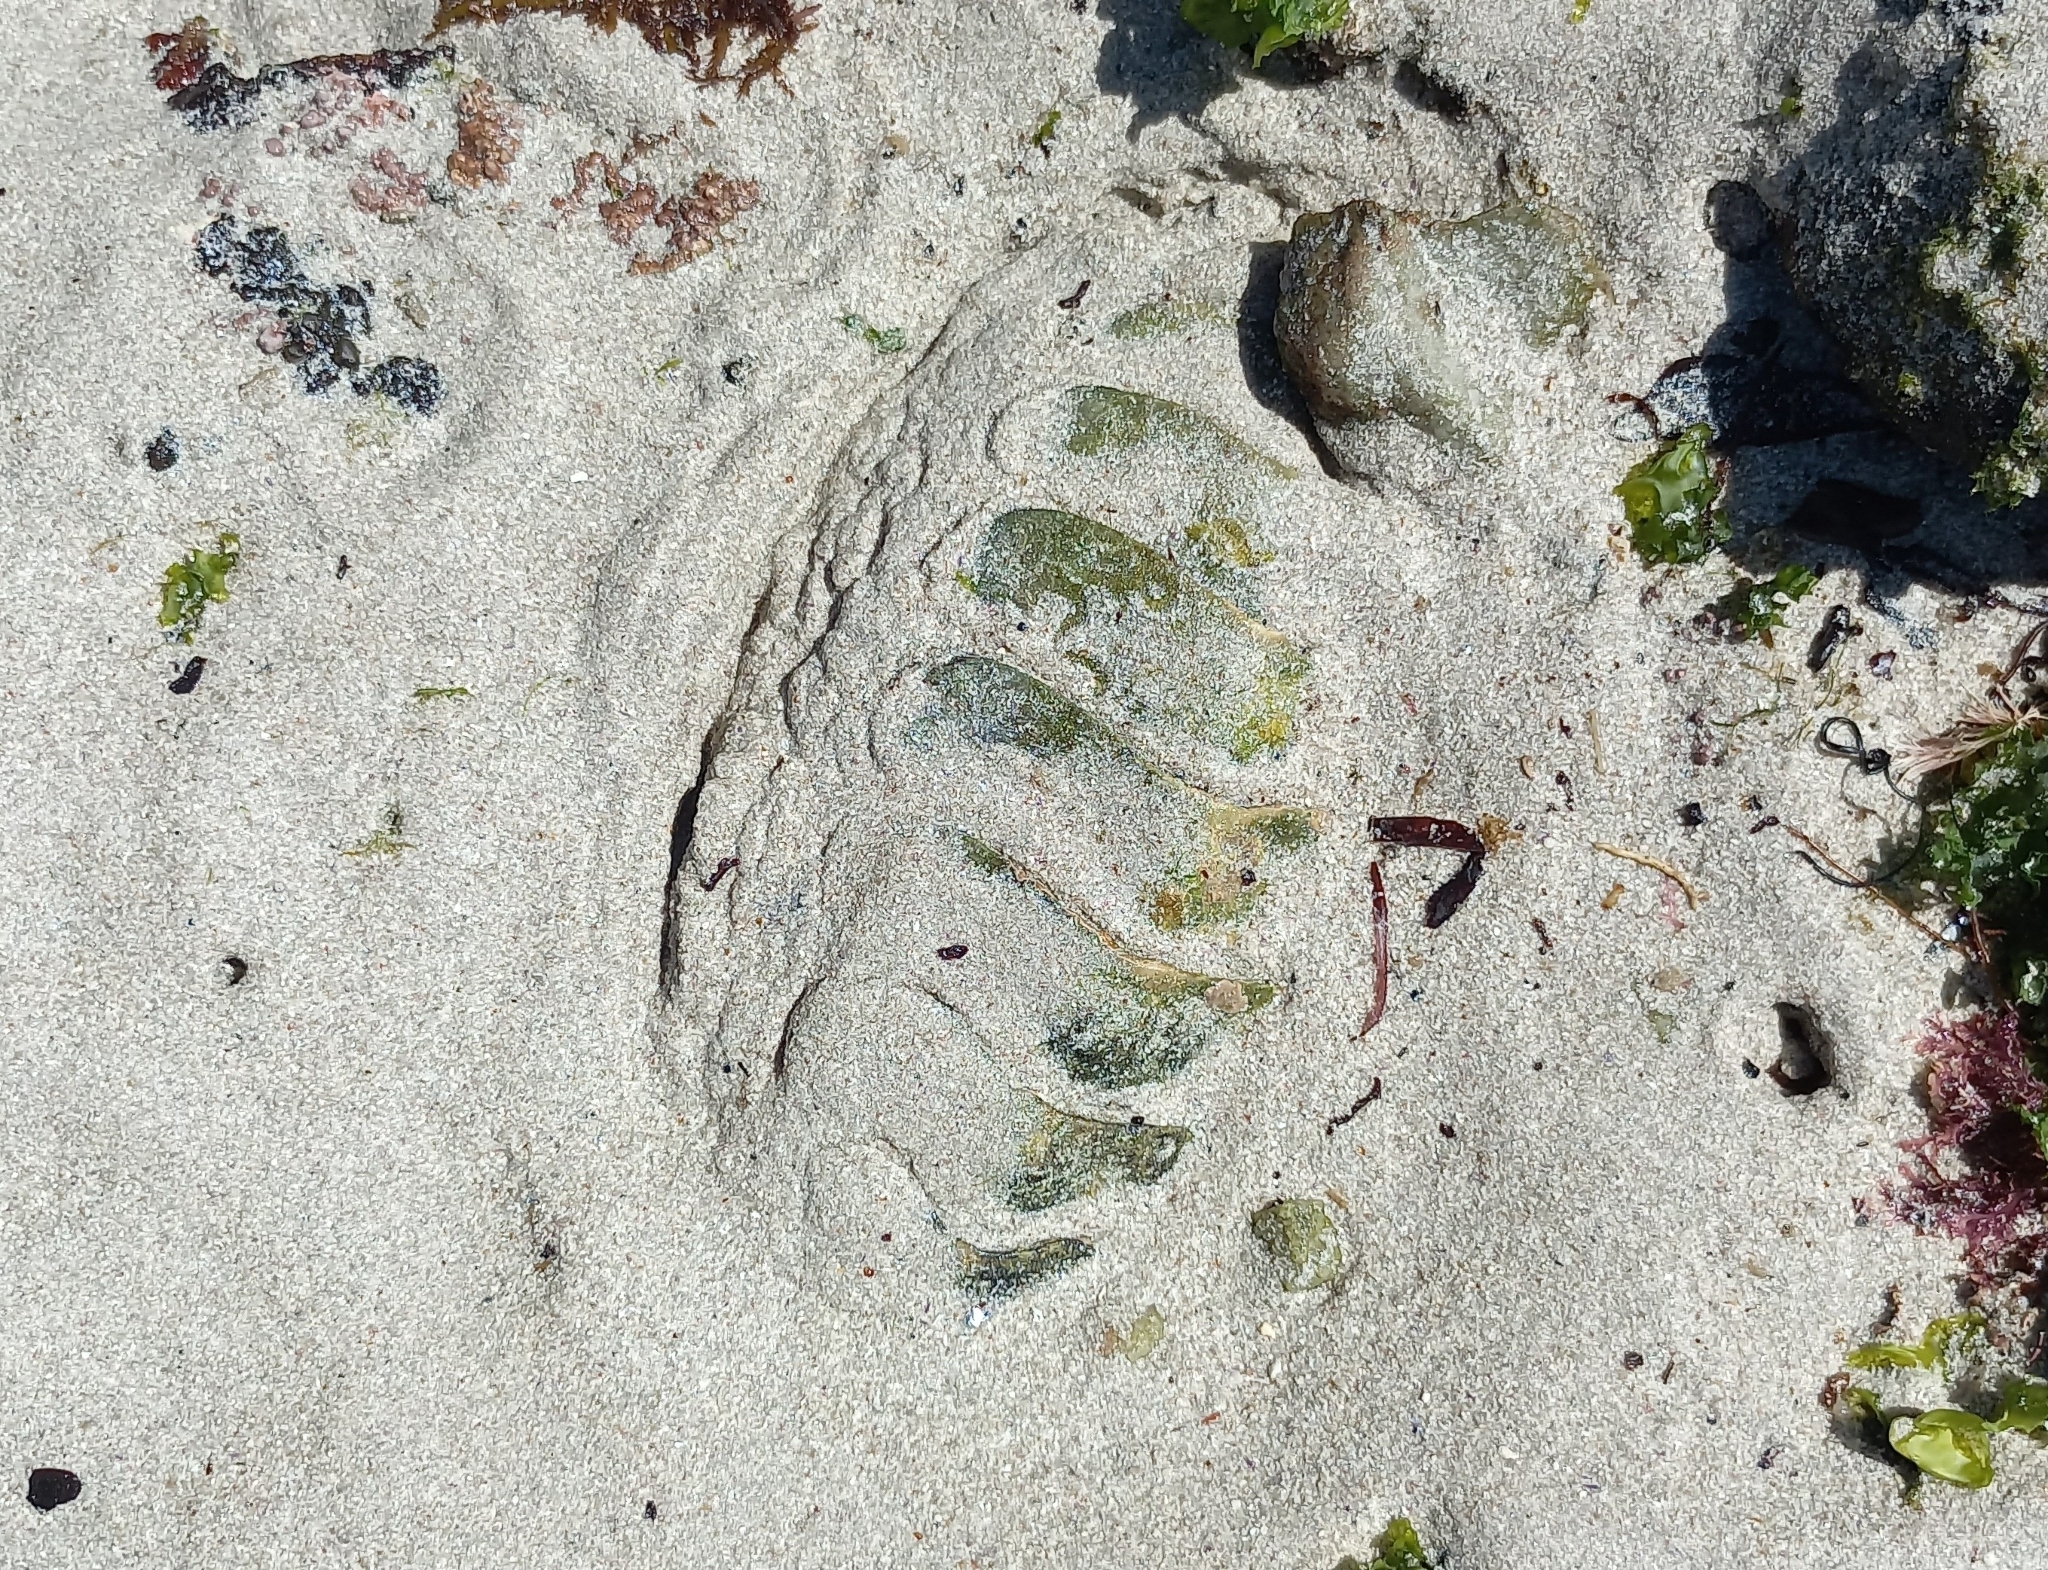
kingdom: Animalia
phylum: Mollusca
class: Polyplacophora
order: Chitonida
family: Chaetopleuridae
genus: Dinoplax
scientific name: Dinoplax gigas
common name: Armadillo
